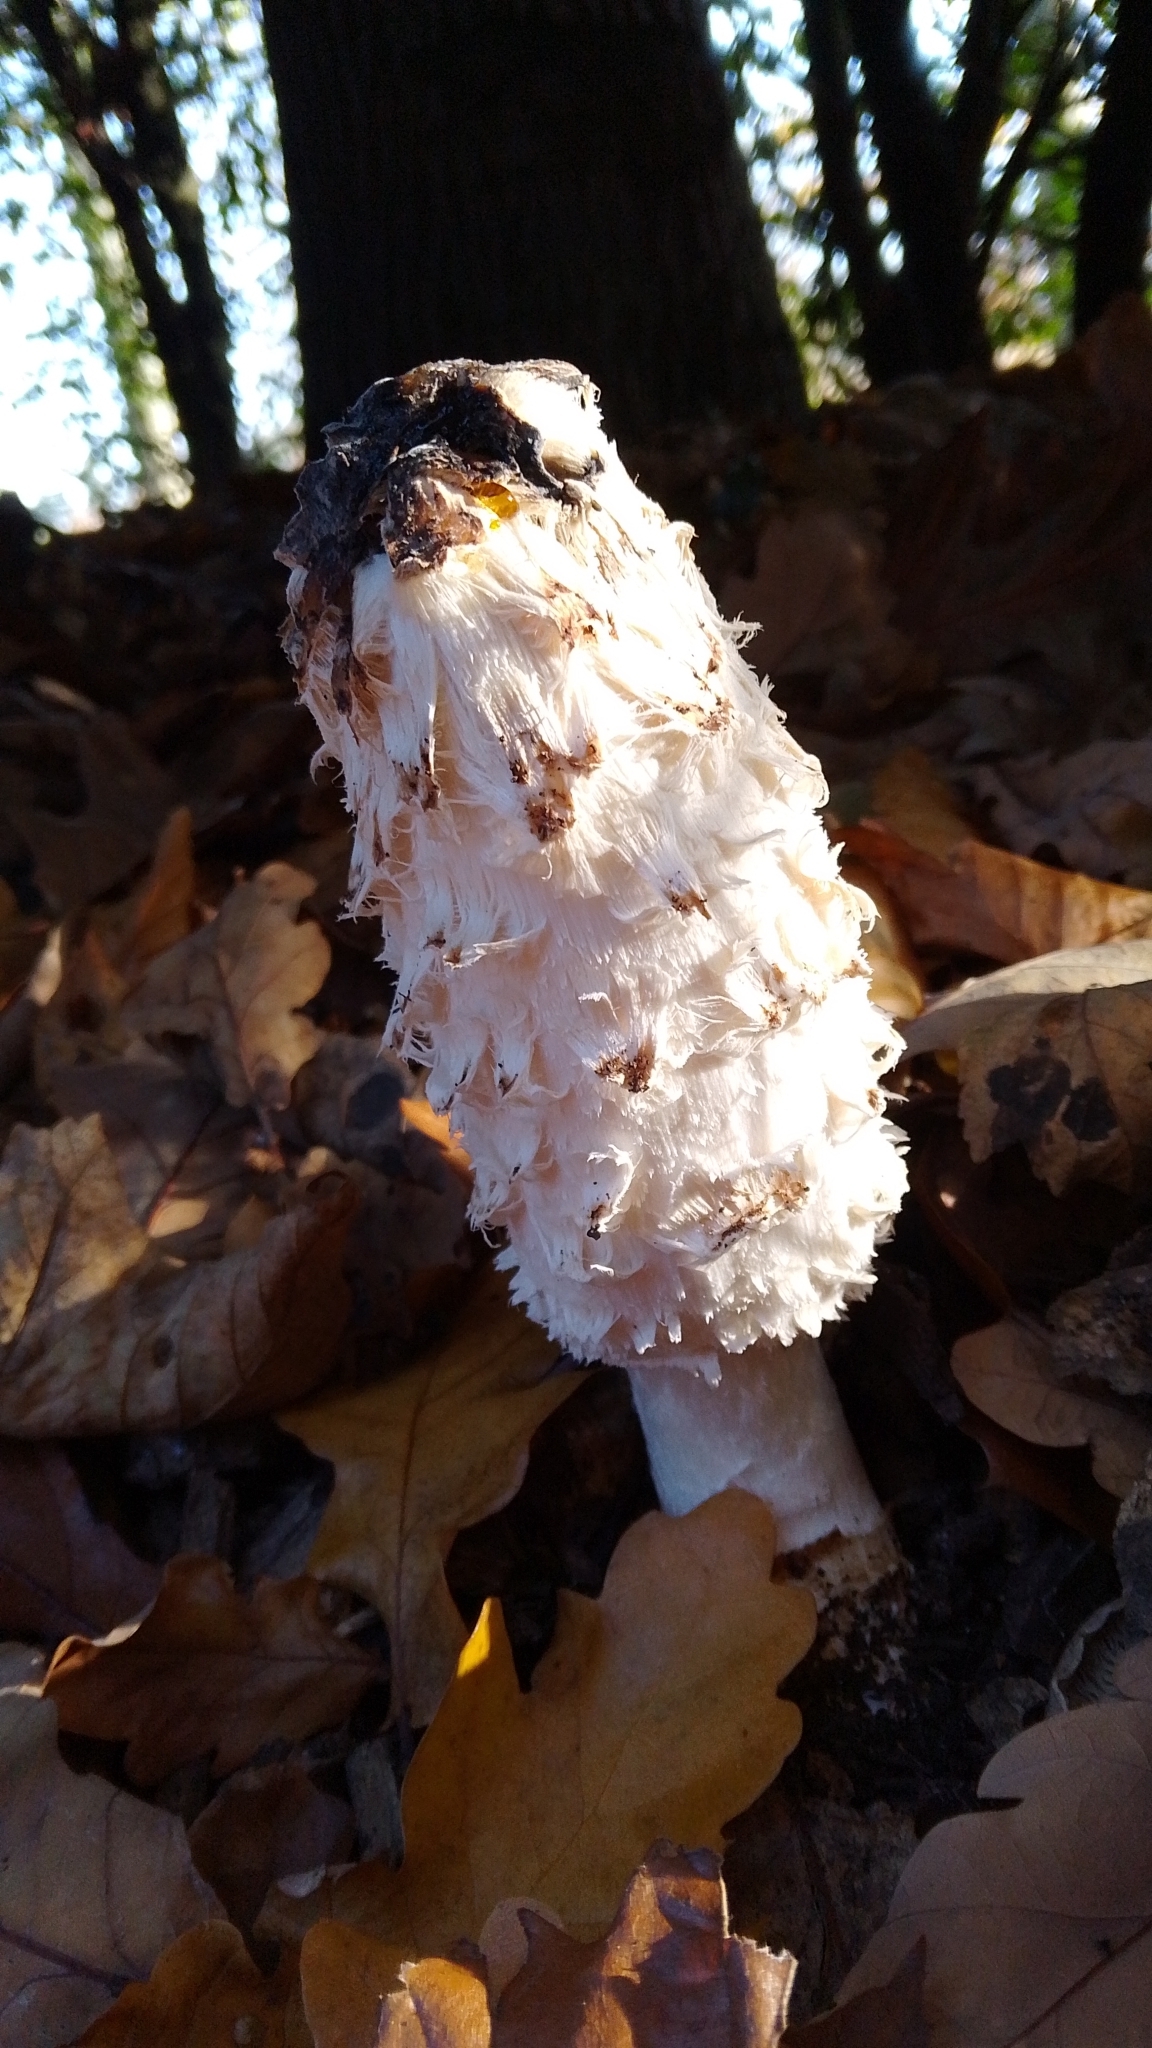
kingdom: Fungi
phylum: Basidiomycota
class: Agaricomycetes
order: Agaricales
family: Agaricaceae
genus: Coprinus
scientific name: Coprinus comatus
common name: Lawyer's wig
